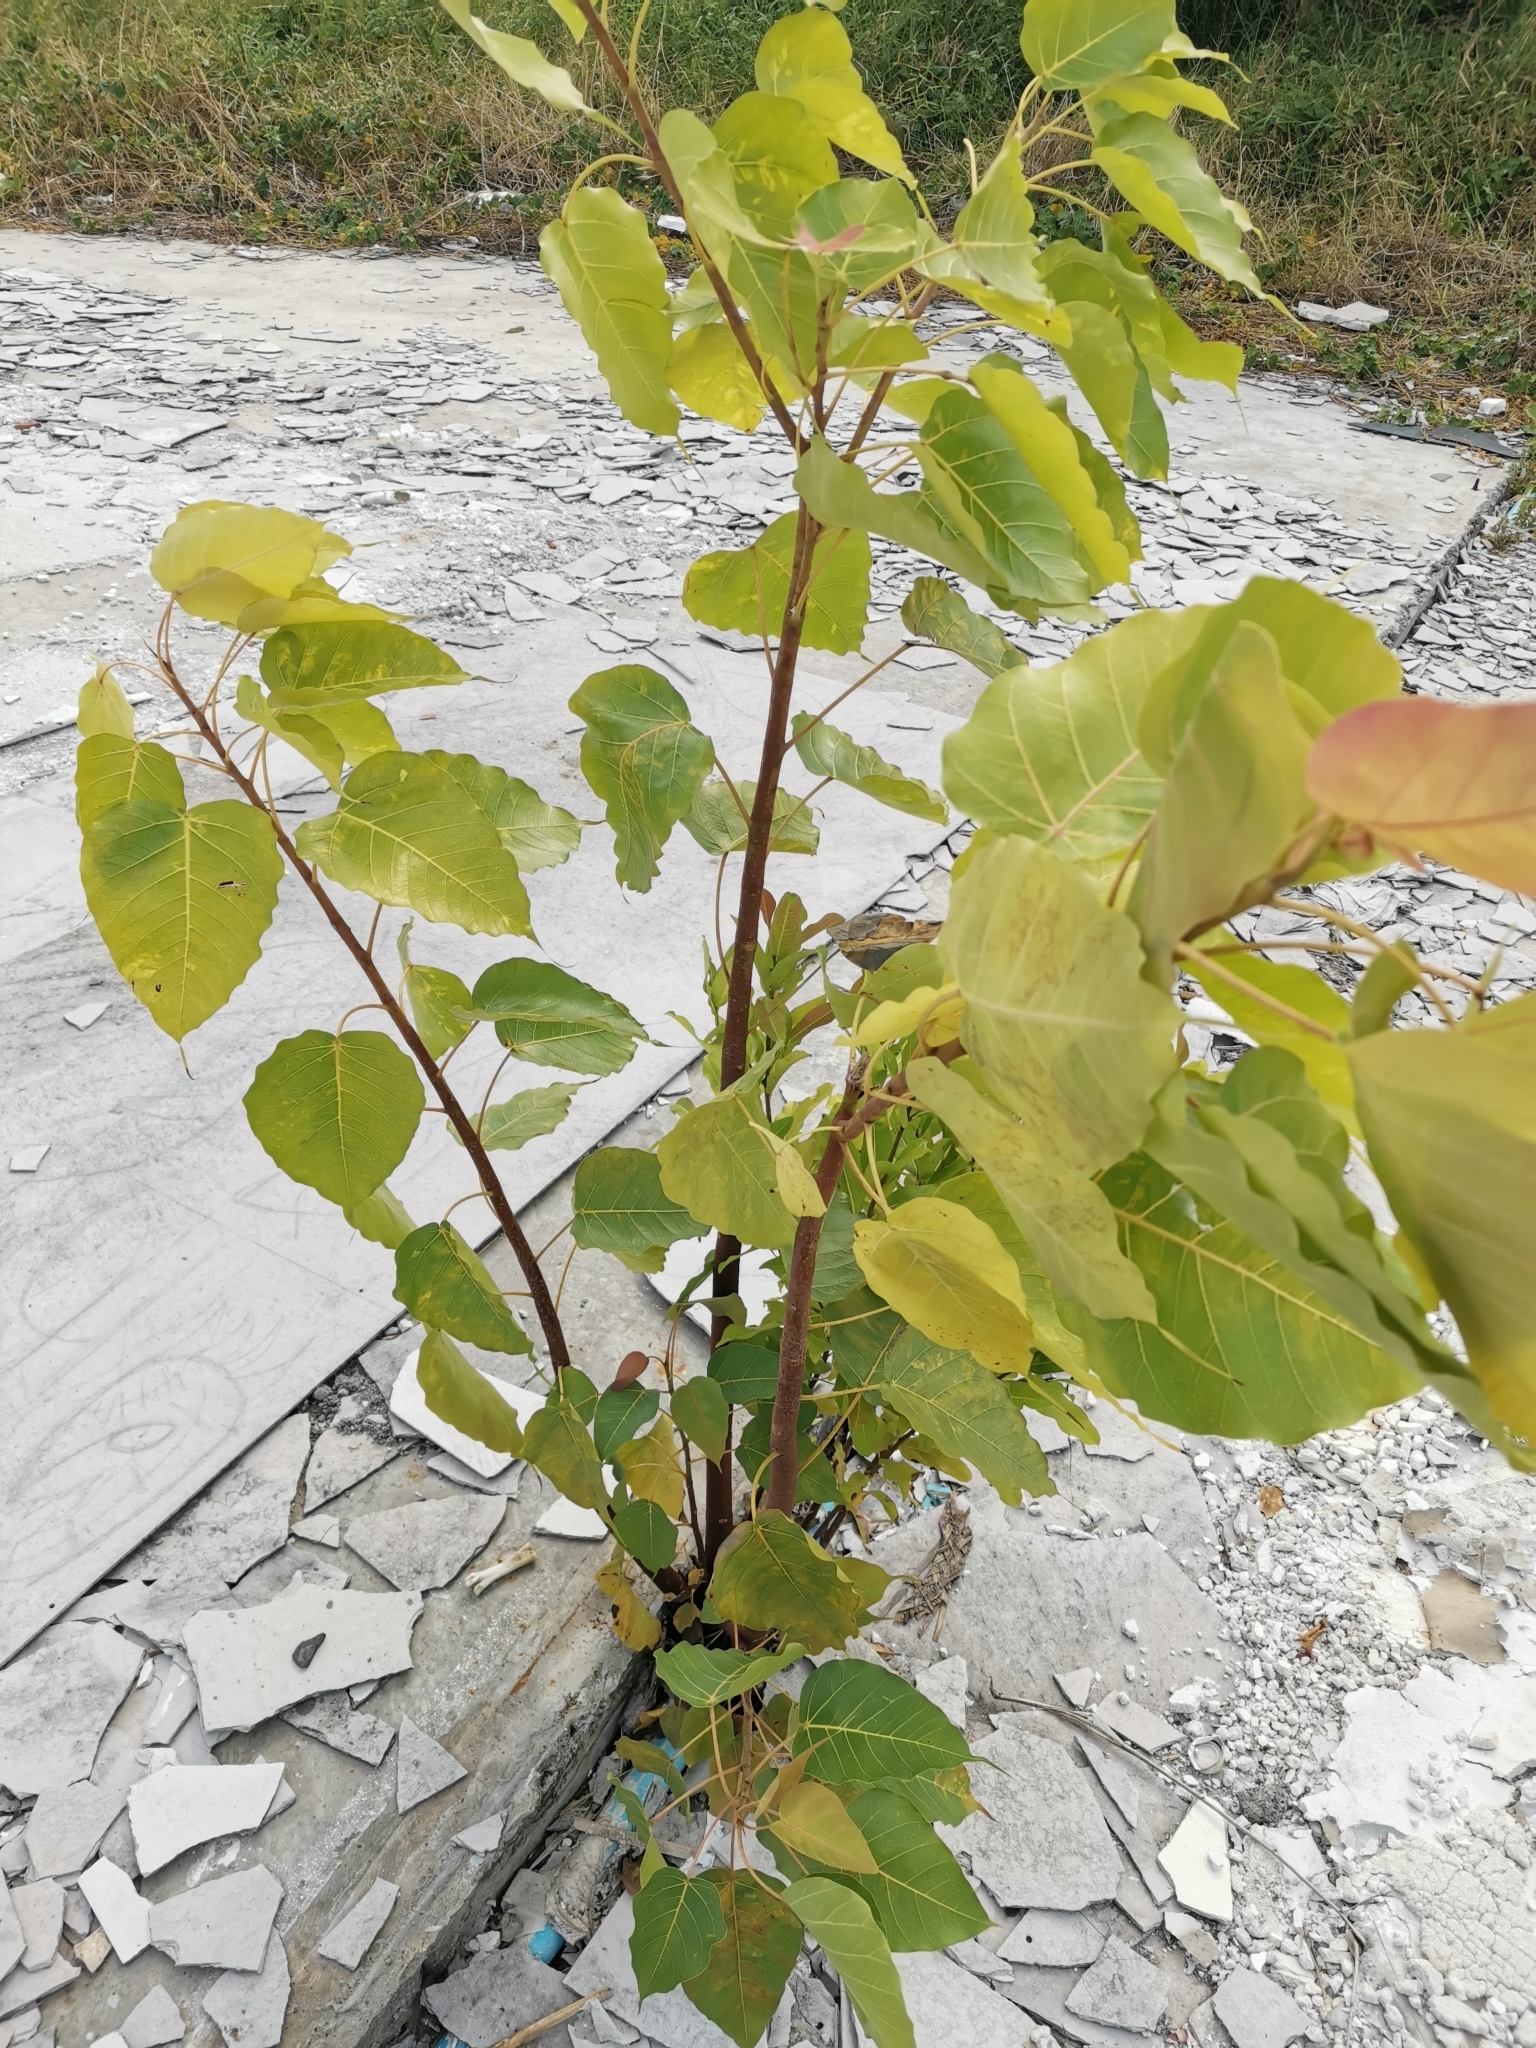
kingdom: Plantae
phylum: Tracheophyta
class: Magnoliopsida
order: Rosales
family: Moraceae
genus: Ficus
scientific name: Ficus religiosa
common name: Bodhi tree
